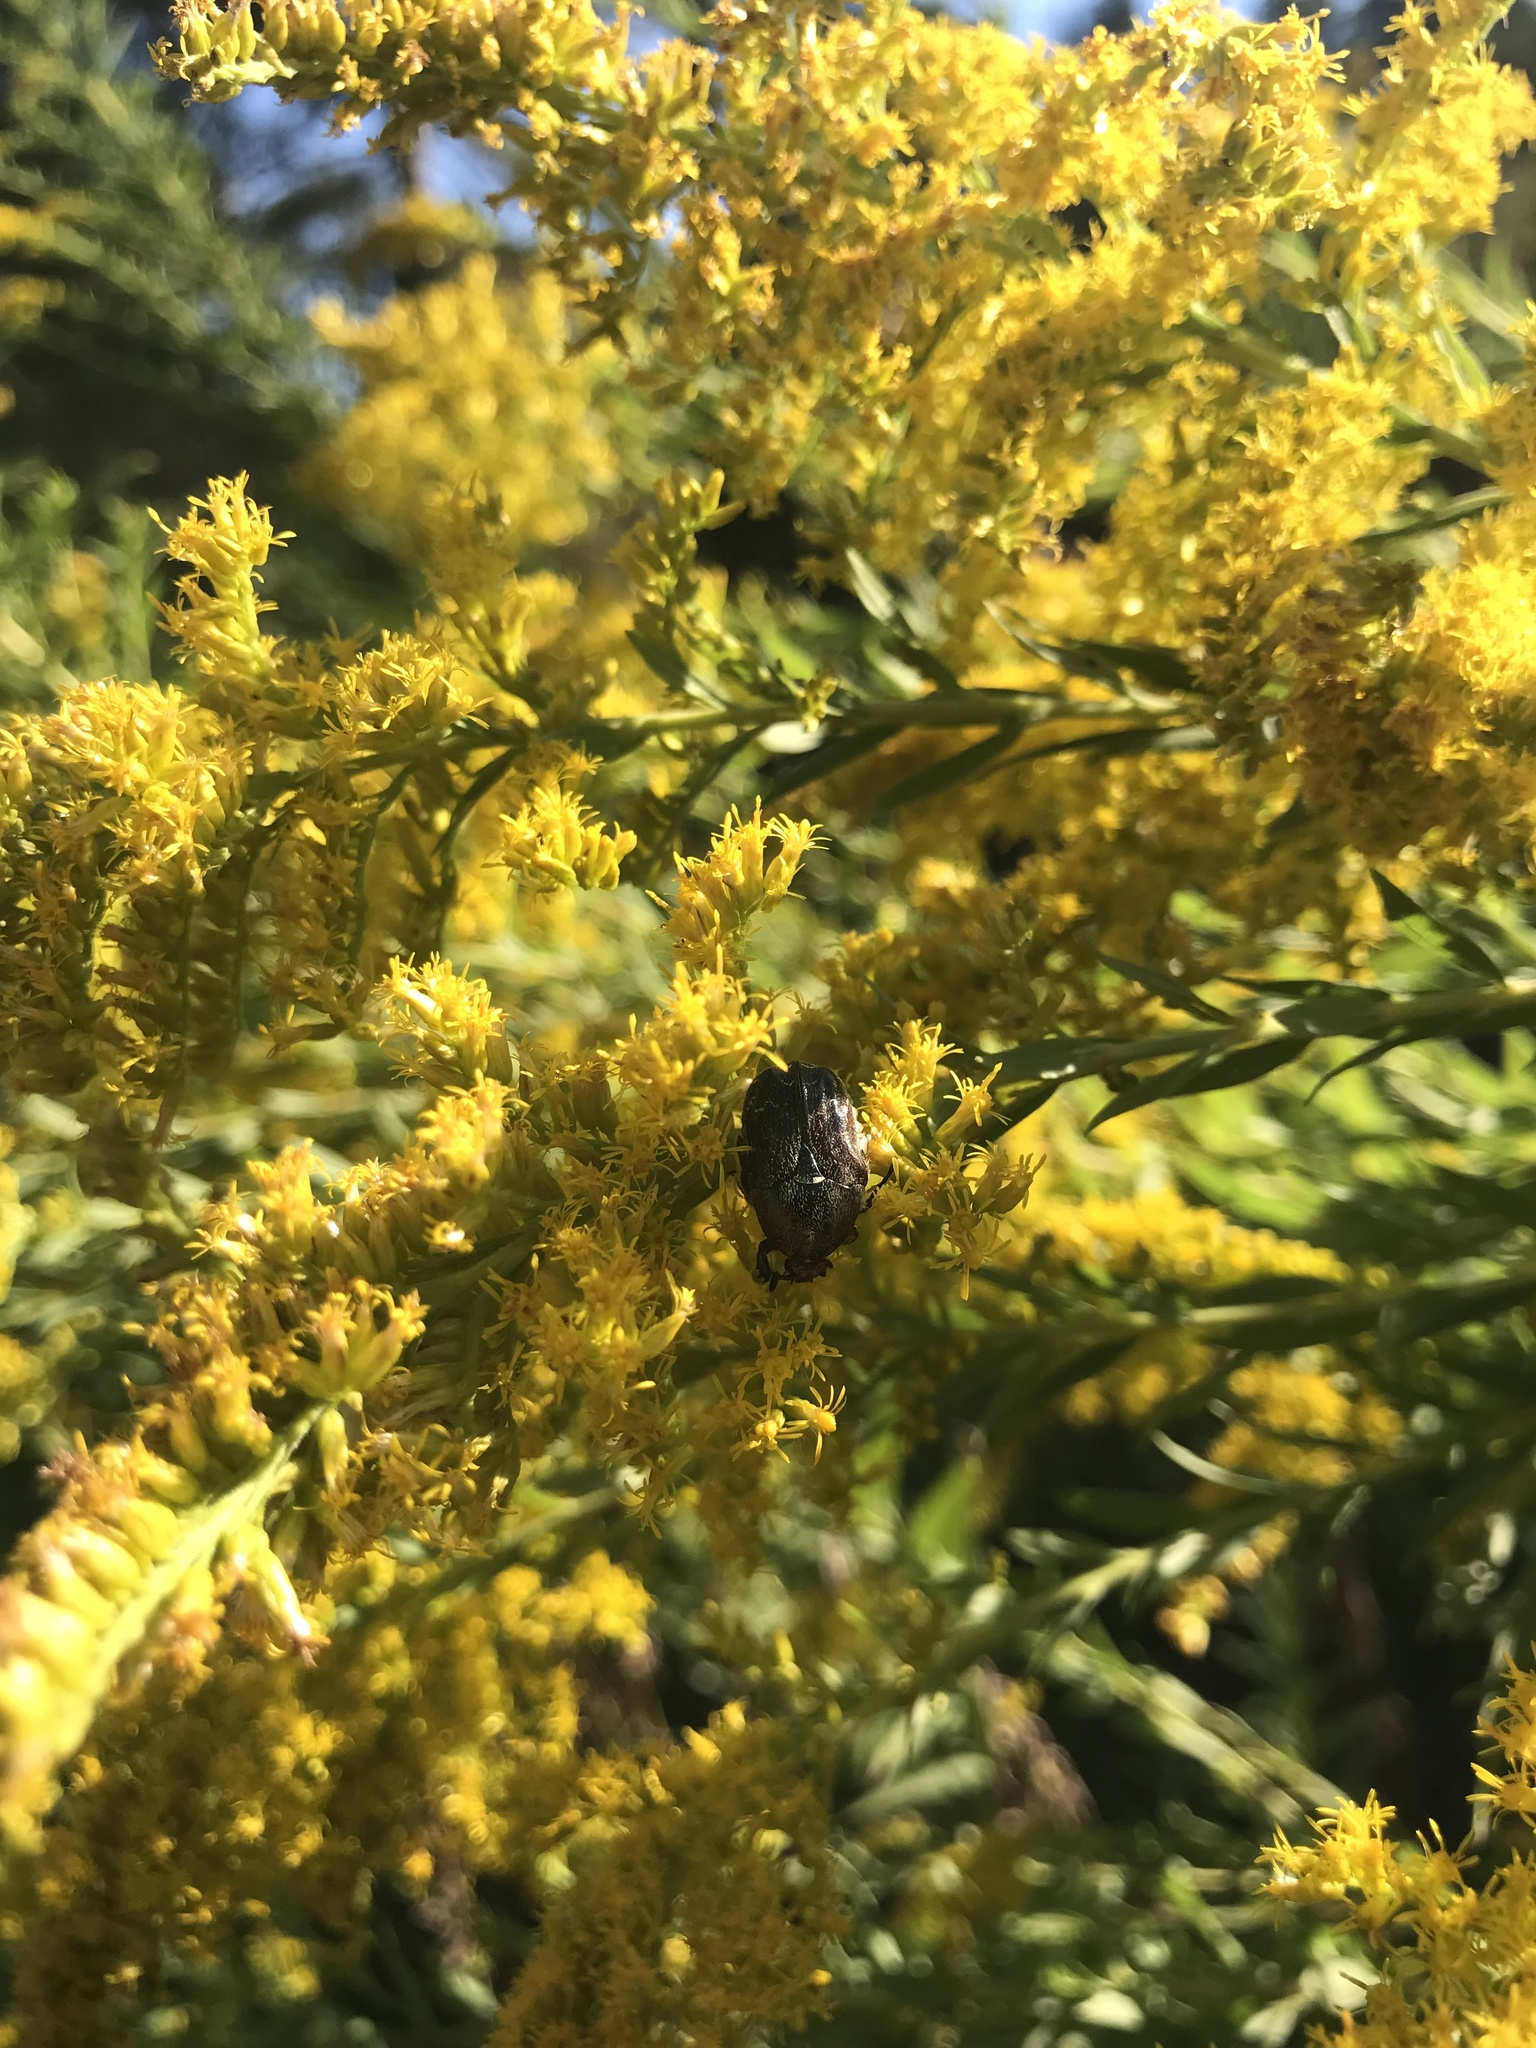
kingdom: Animalia
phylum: Arthropoda
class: Insecta
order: Coleoptera
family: Scarabaeidae
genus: Euphoria
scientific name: Euphoria sepulcralis
